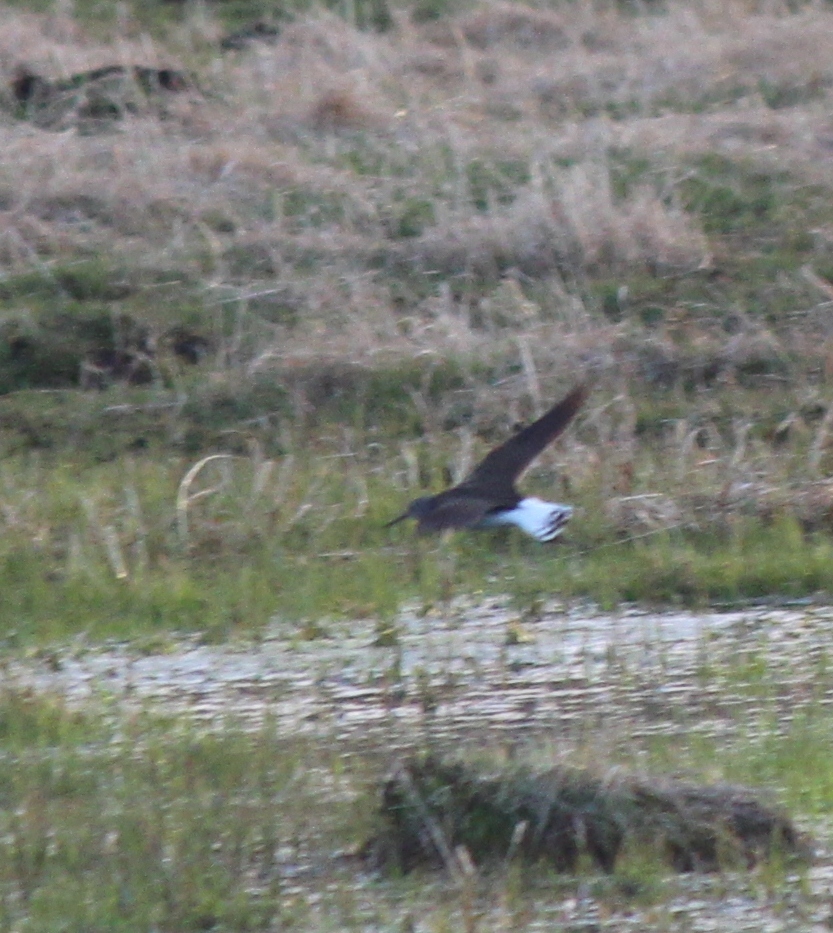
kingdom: Animalia
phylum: Chordata
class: Aves
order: Charadriiformes
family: Scolopacidae
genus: Tringa
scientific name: Tringa ochropus
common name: Green sandpiper
